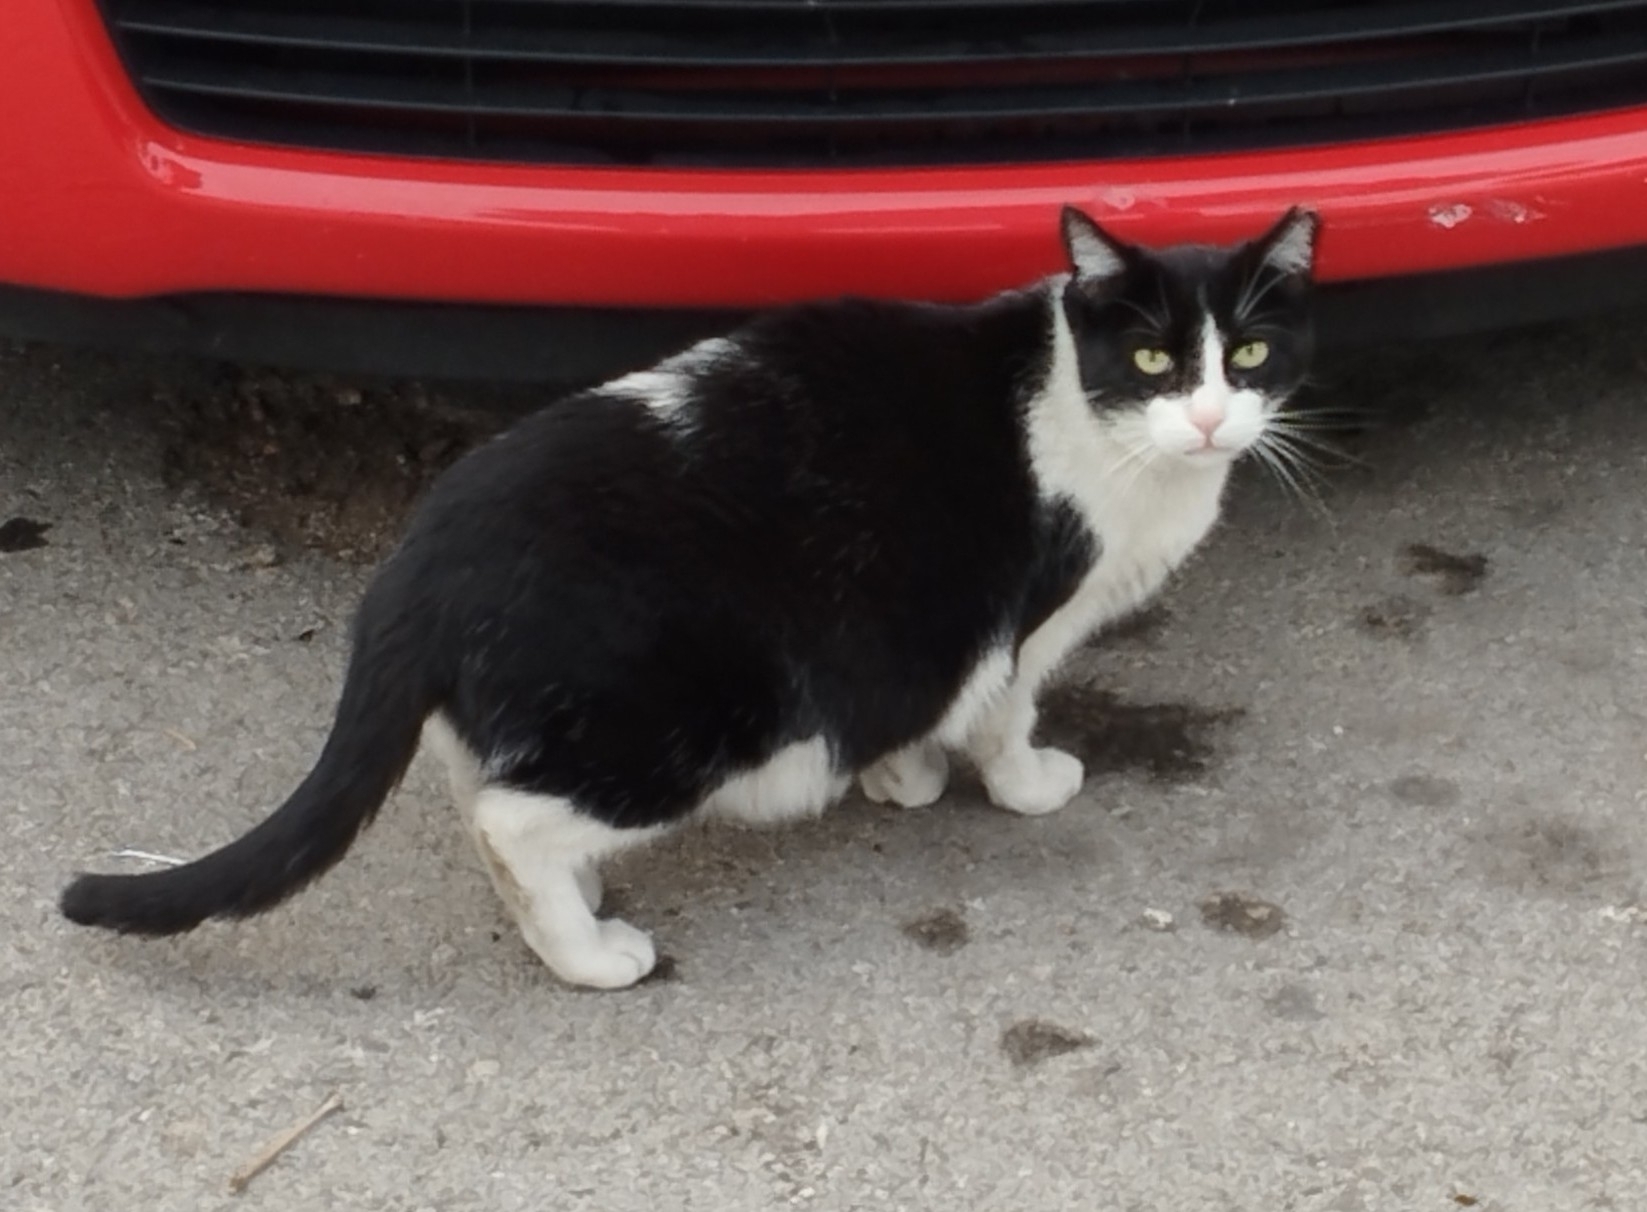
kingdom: Animalia
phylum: Chordata
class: Mammalia
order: Carnivora
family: Felidae
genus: Felis
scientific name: Felis catus
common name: Domestic cat
